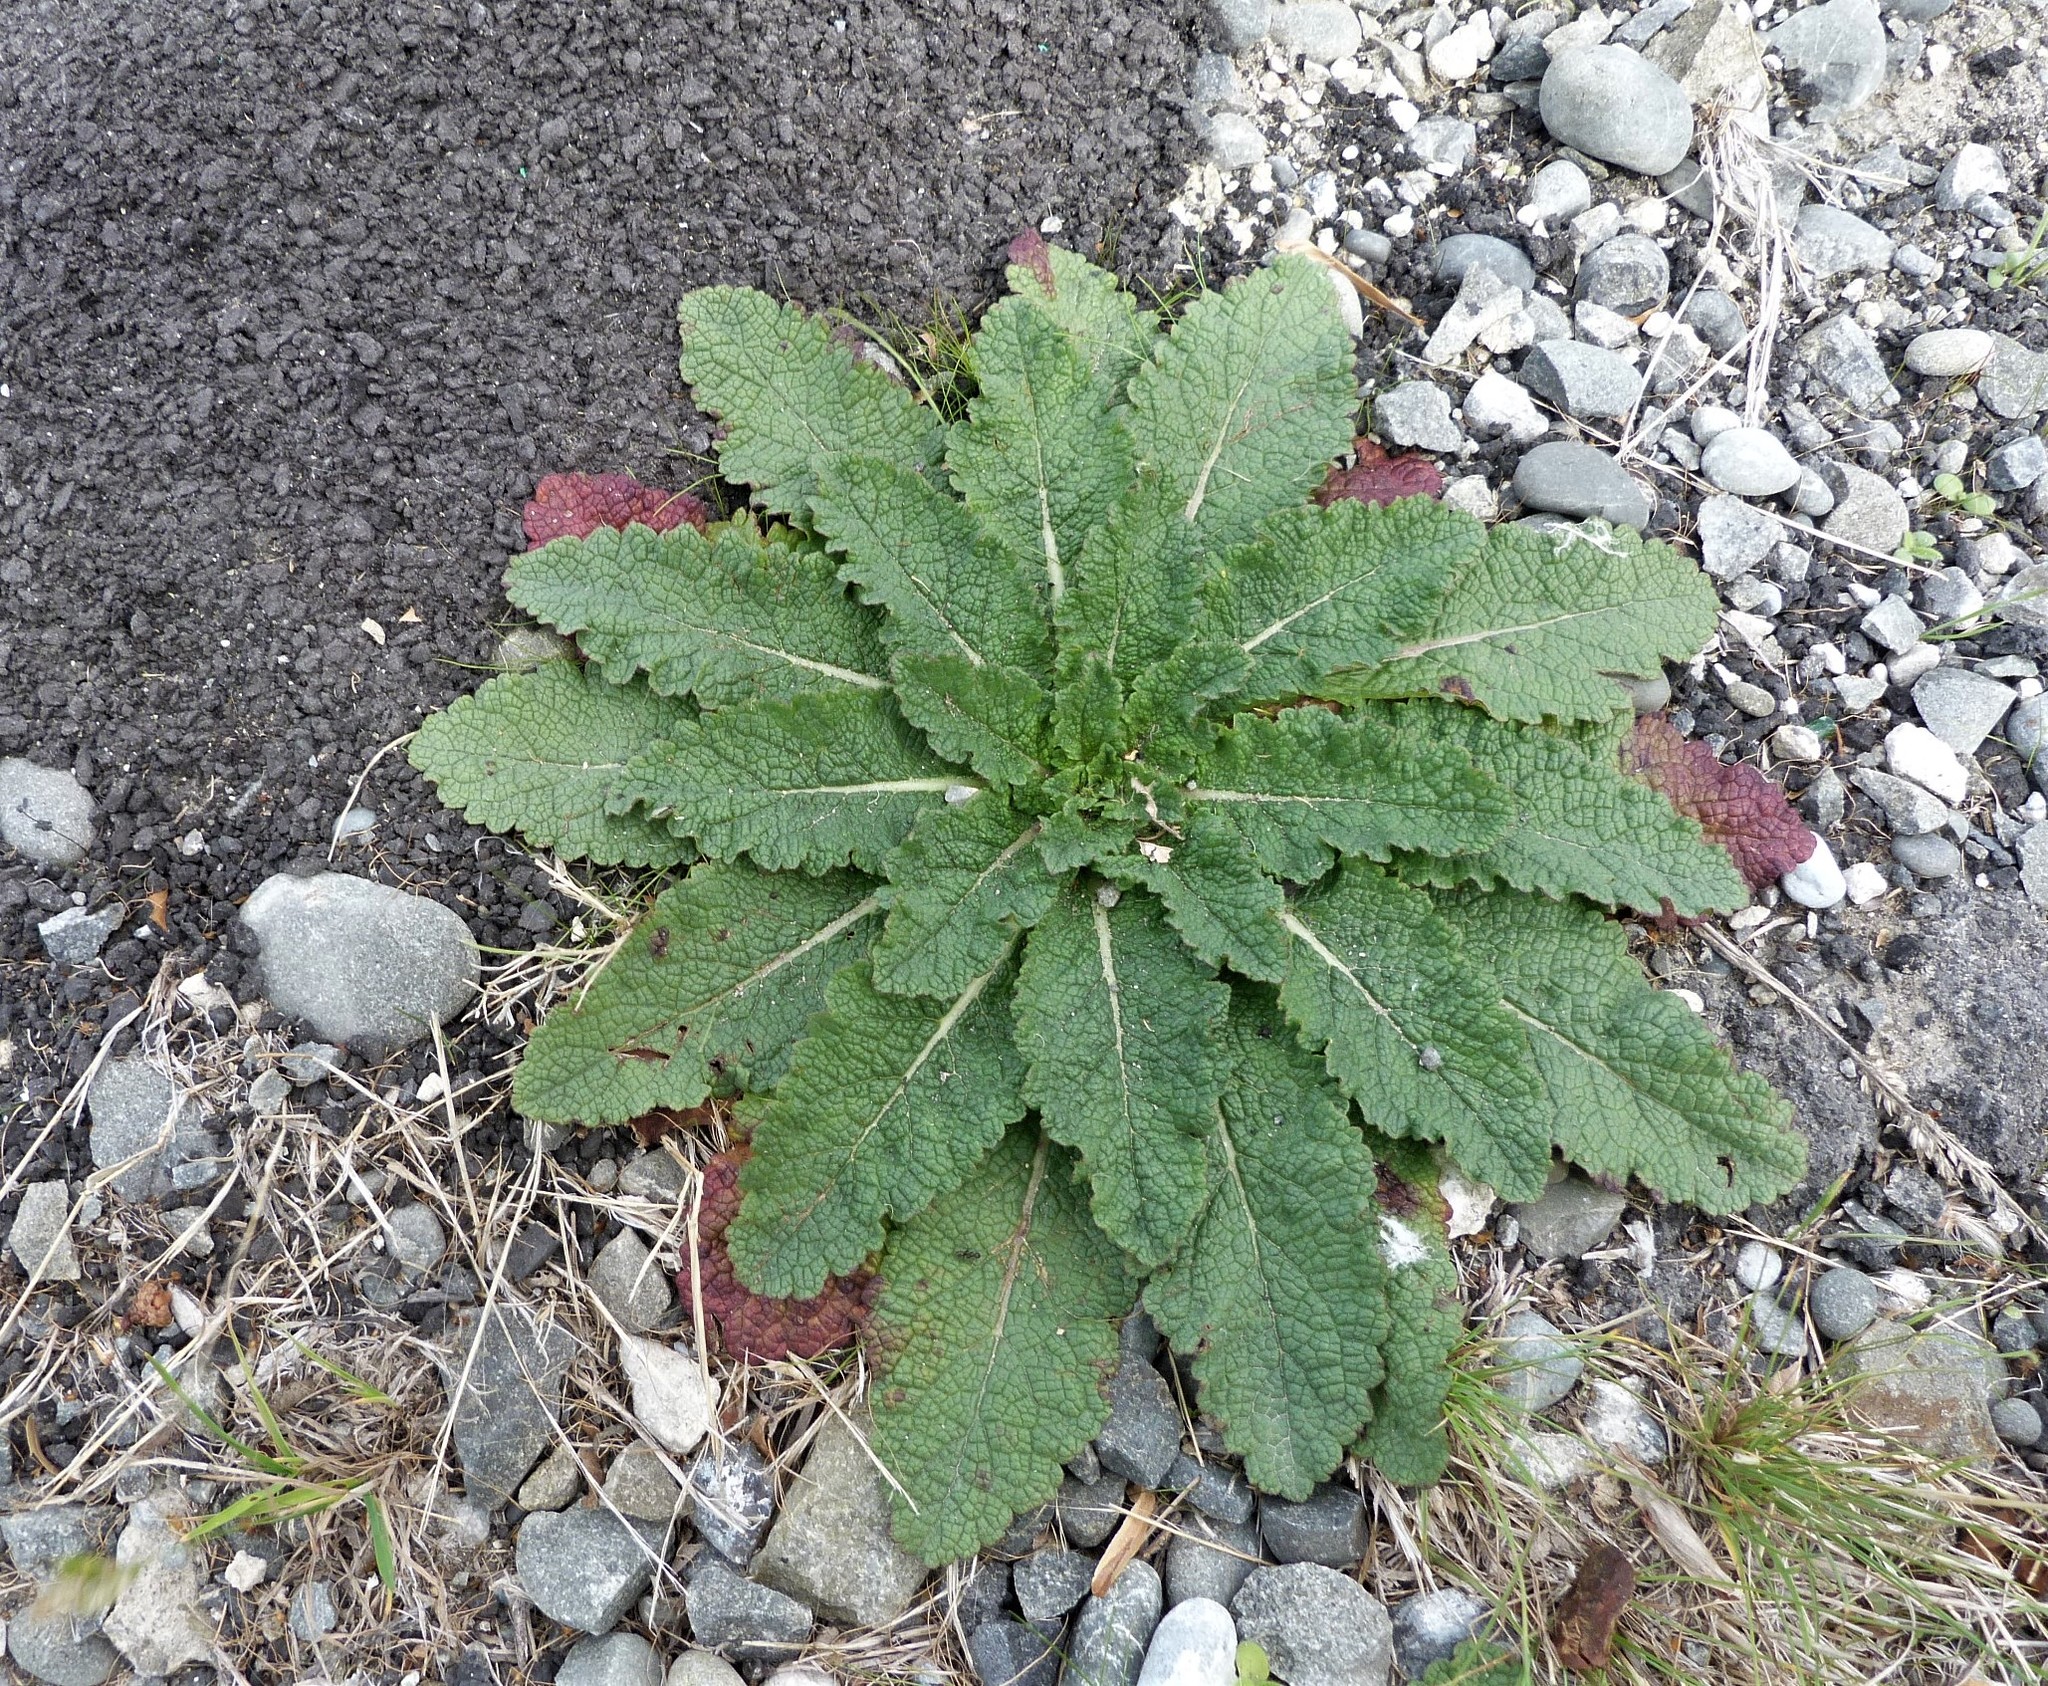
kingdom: Plantae
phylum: Tracheophyta
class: Magnoliopsida
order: Lamiales
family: Scrophulariaceae
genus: Verbascum
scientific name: Verbascum virgatum
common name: Twiggy mullein
